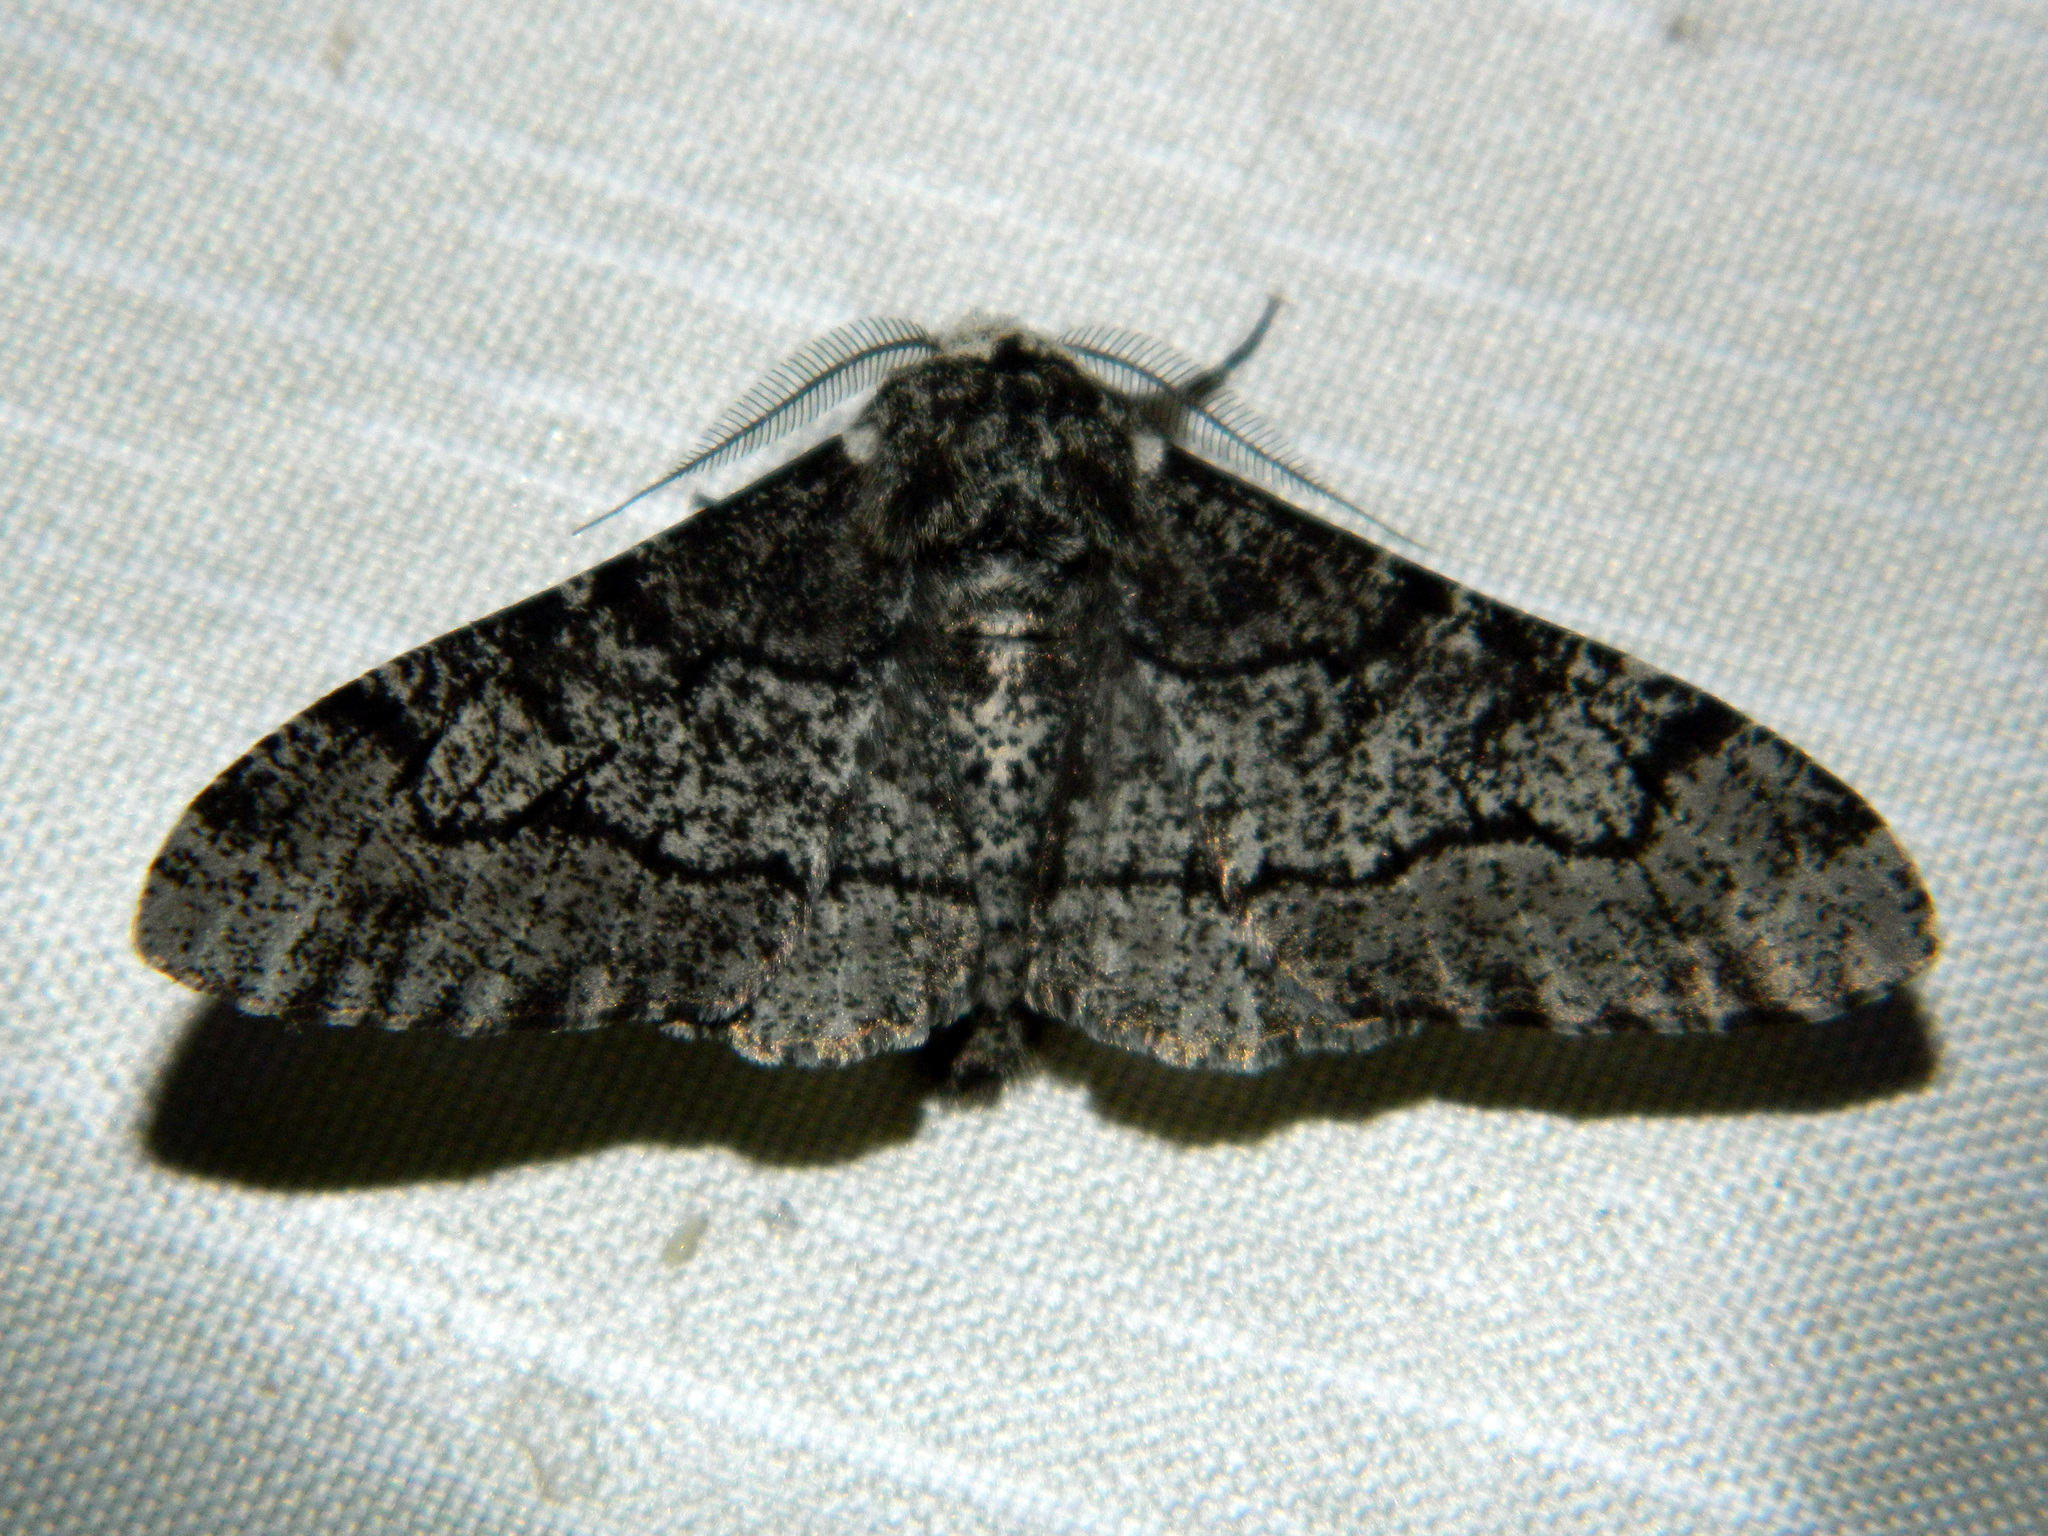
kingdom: Animalia
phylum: Arthropoda
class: Insecta
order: Lepidoptera
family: Geometridae
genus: Biston
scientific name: Biston betularia
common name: Peppered moth
